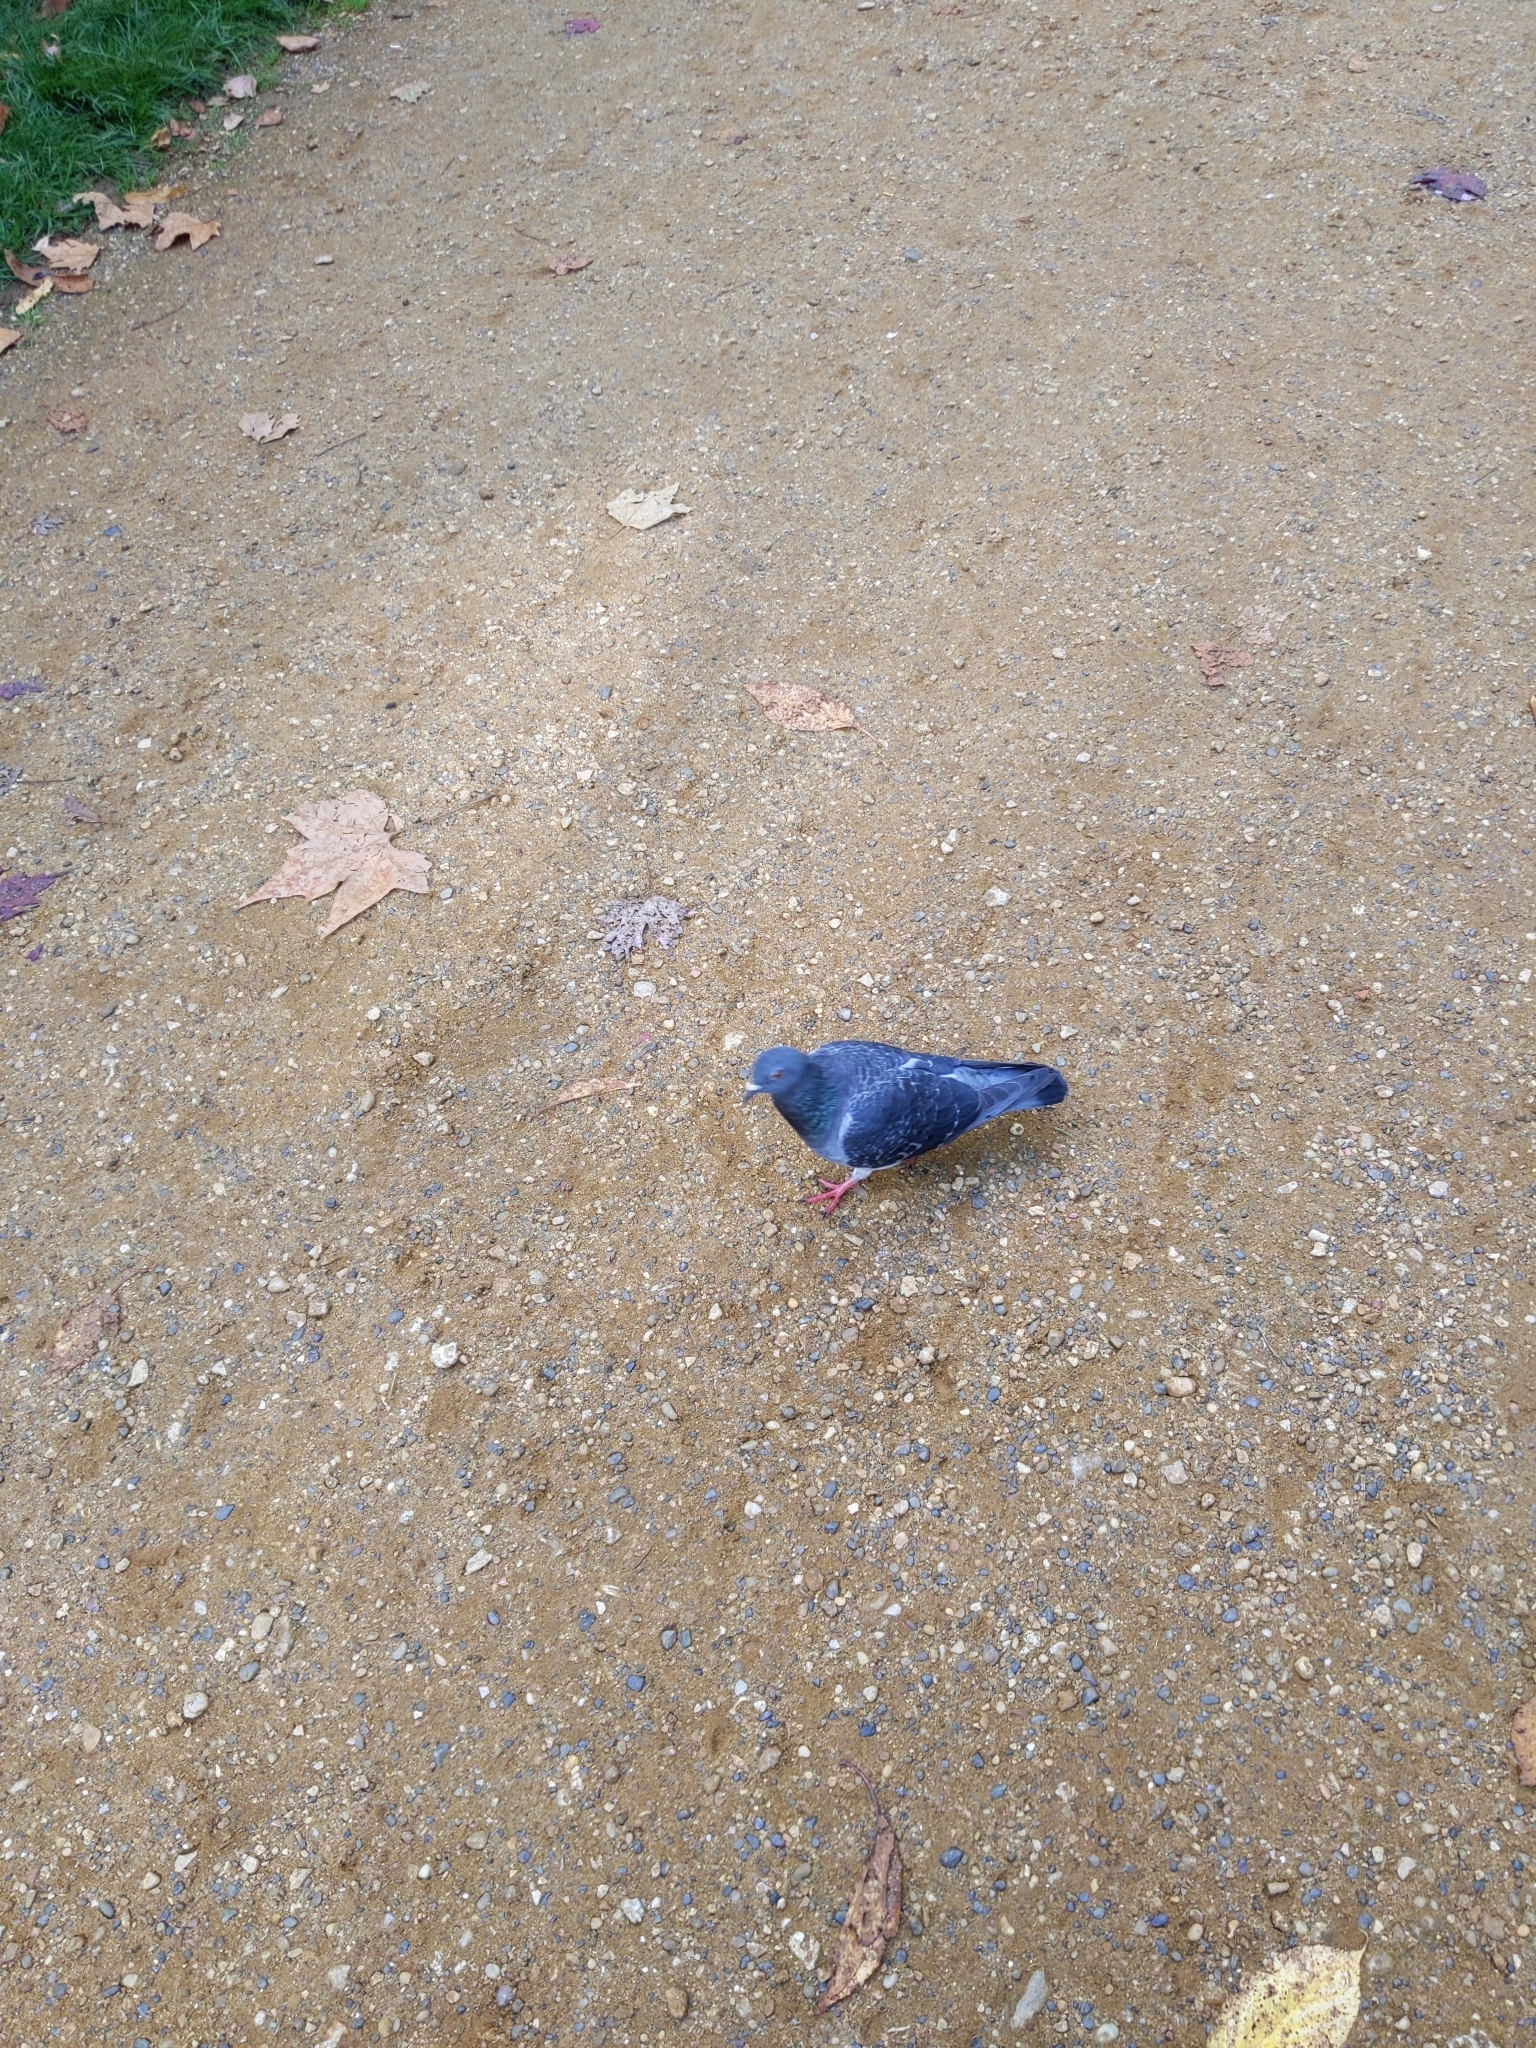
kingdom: Animalia
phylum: Chordata
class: Aves
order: Columbiformes
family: Columbidae
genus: Columba
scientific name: Columba livia
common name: Rock pigeon
